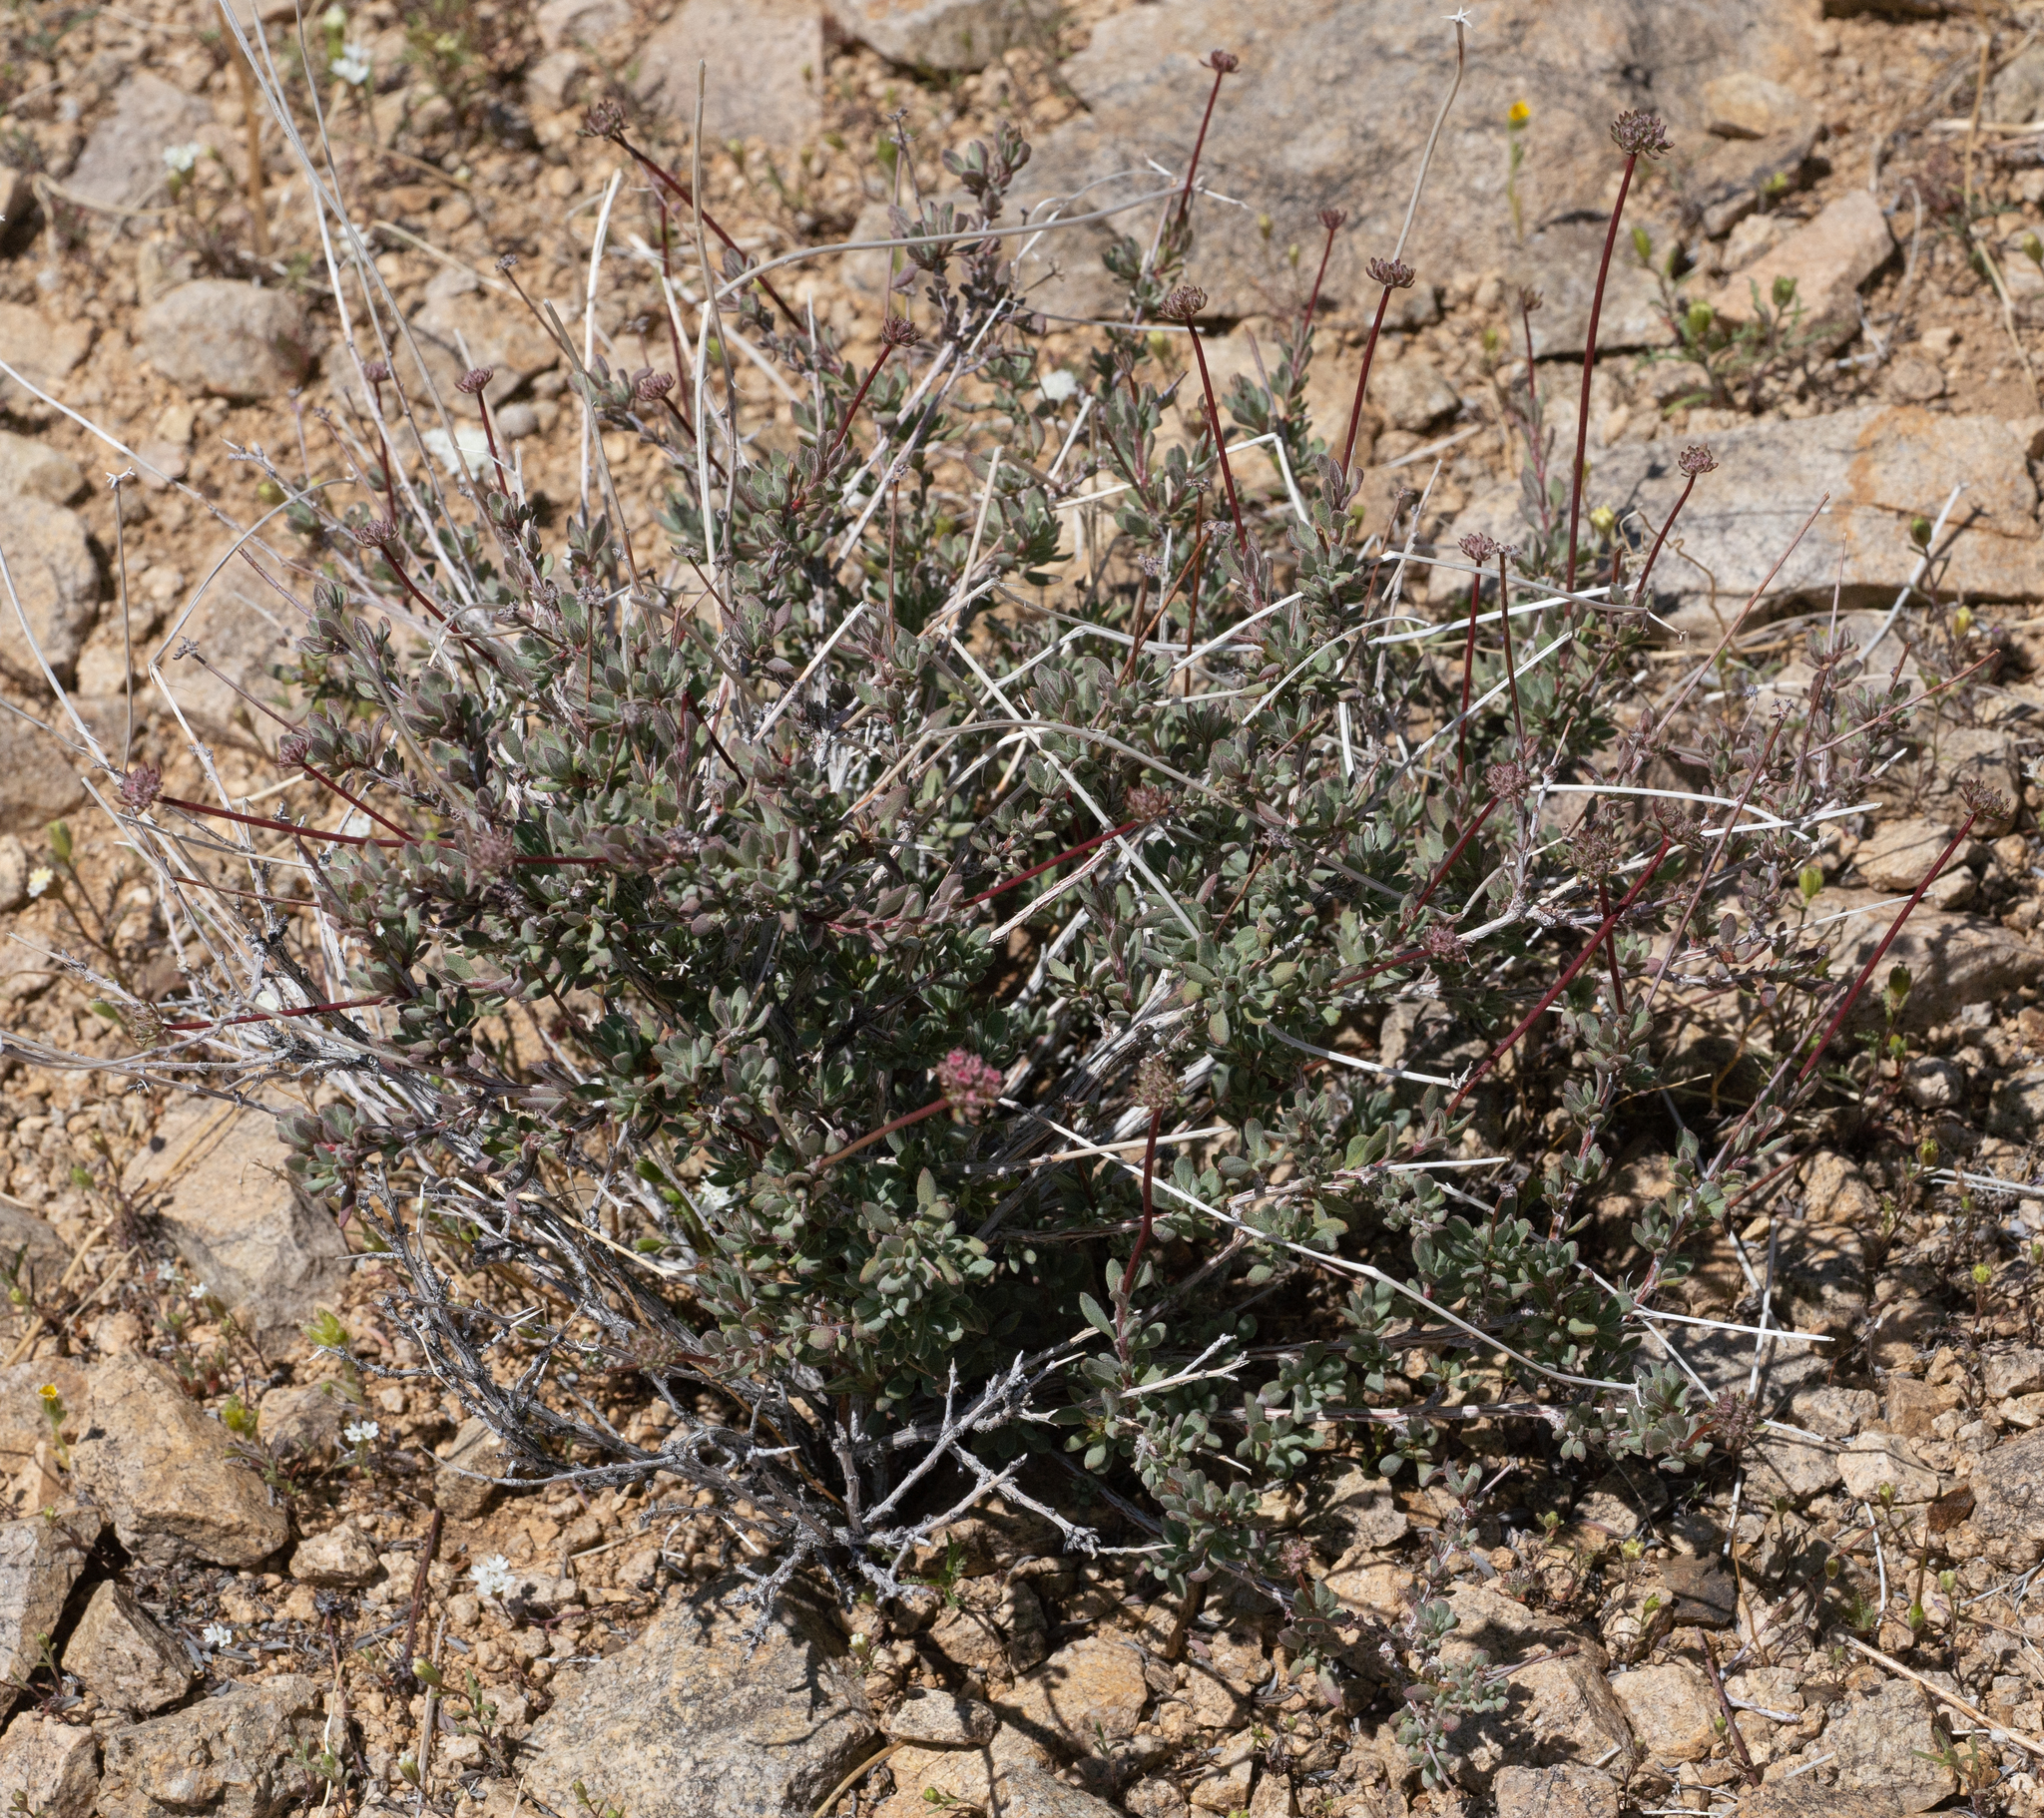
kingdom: Plantae
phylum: Tracheophyta
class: Magnoliopsida
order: Caryophyllales
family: Polygonaceae
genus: Eriogonum
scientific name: Eriogonum fasciculatum
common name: California wild buckwheat
